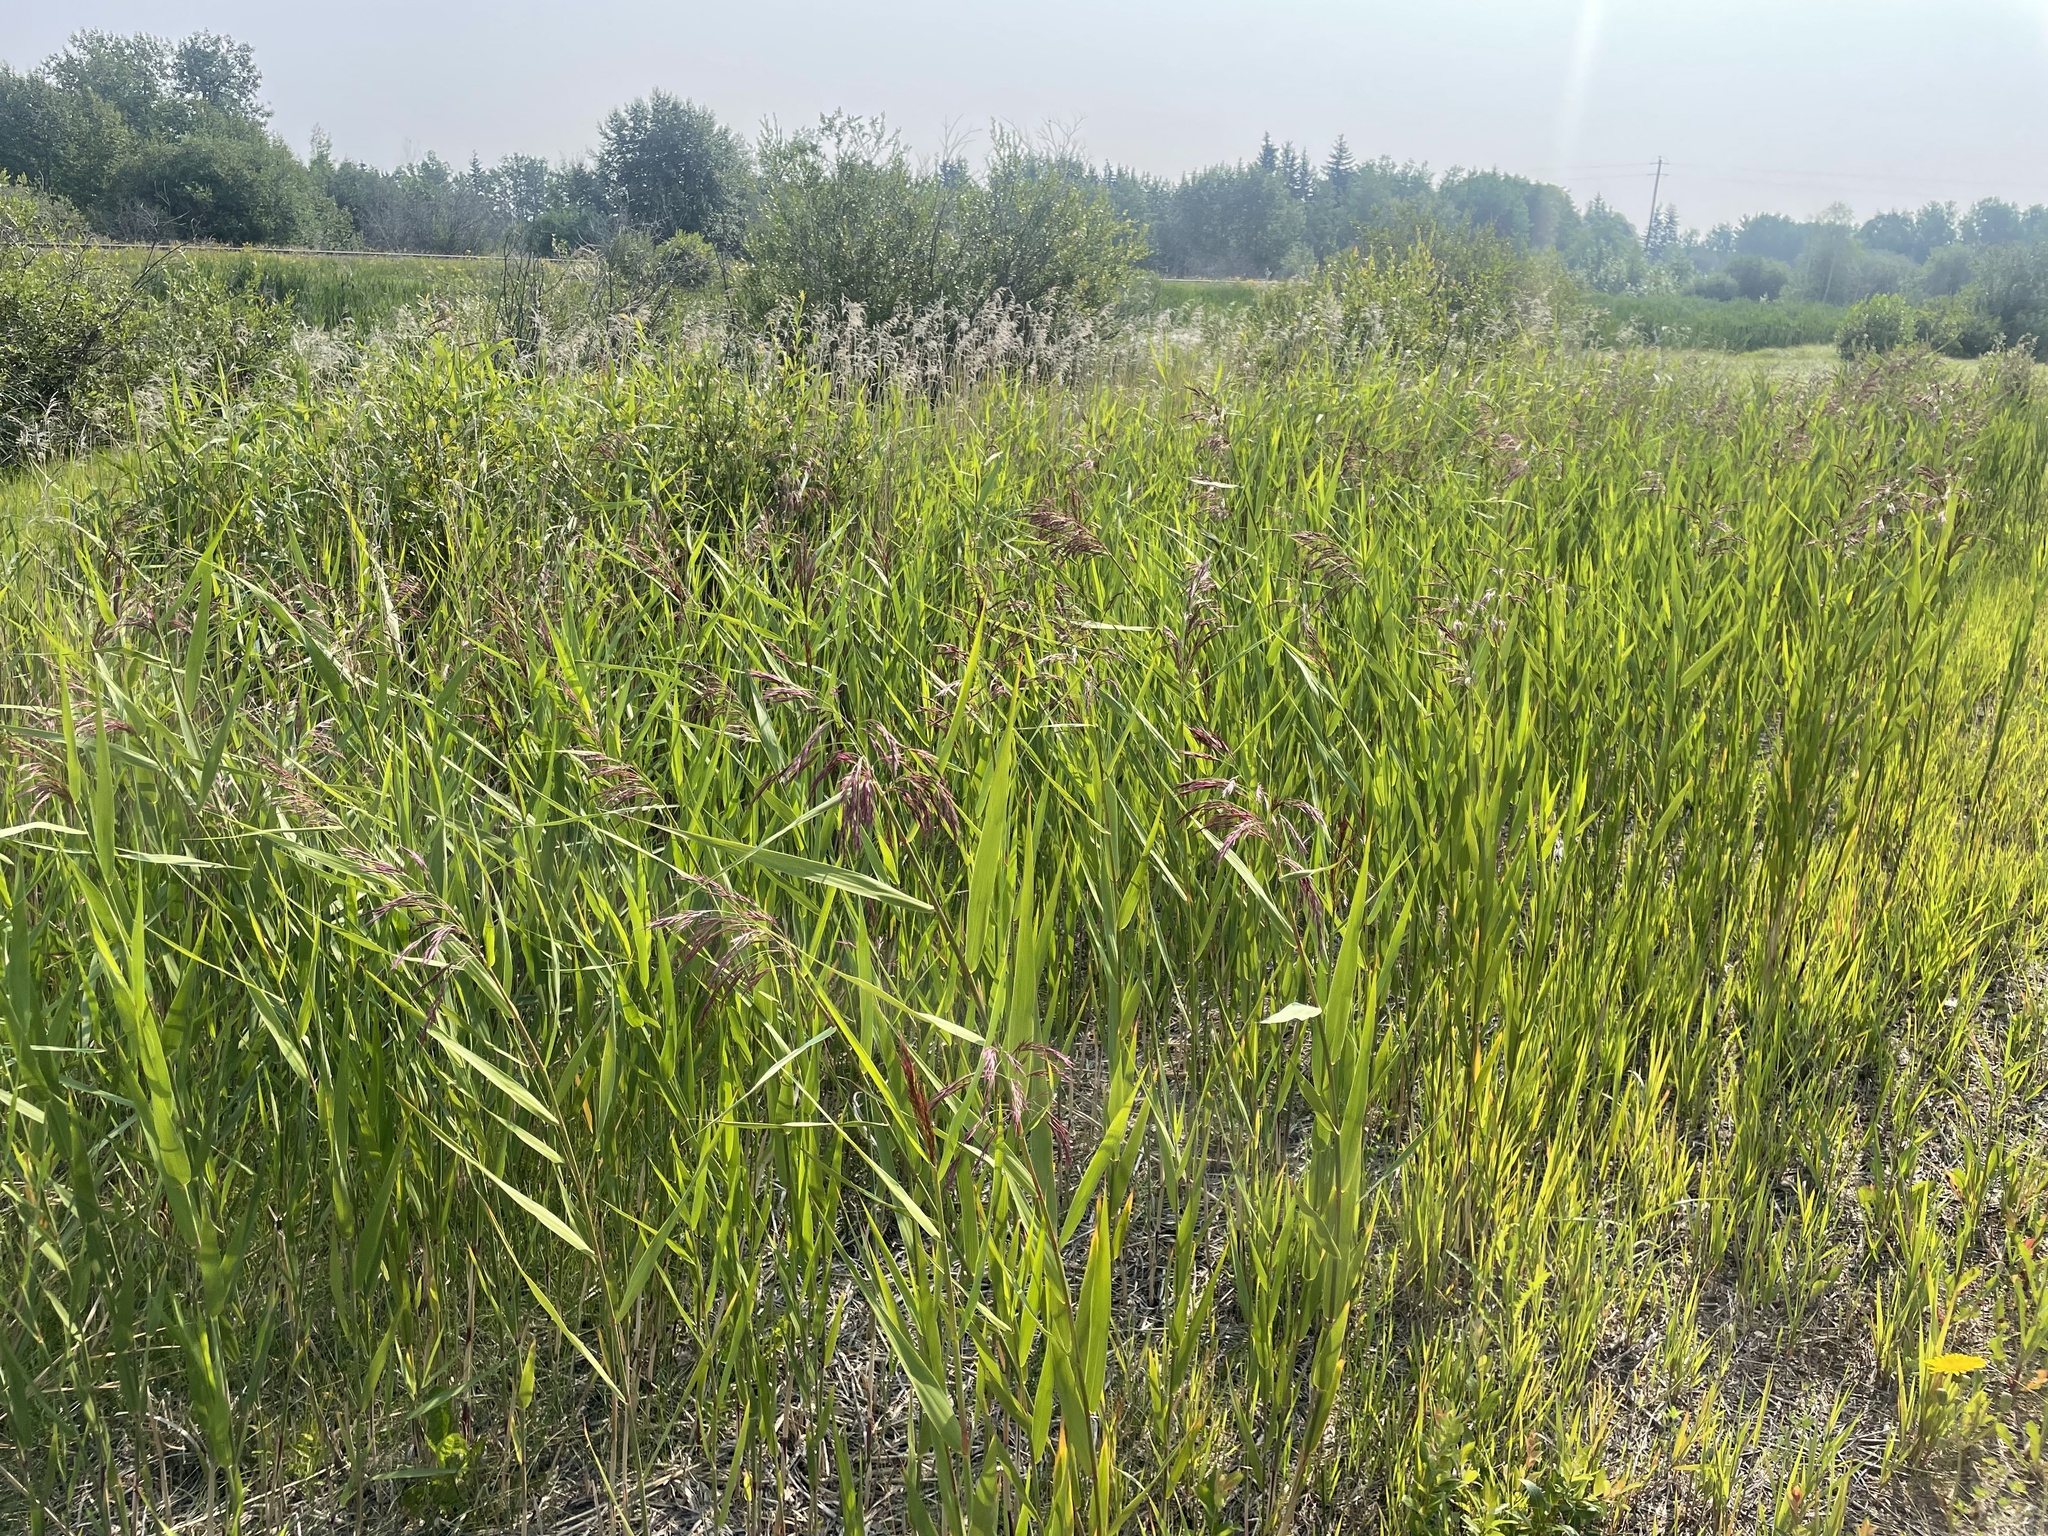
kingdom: Plantae
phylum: Tracheophyta
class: Liliopsida
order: Poales
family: Poaceae
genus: Phragmites
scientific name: Phragmites australis
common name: Common reed
